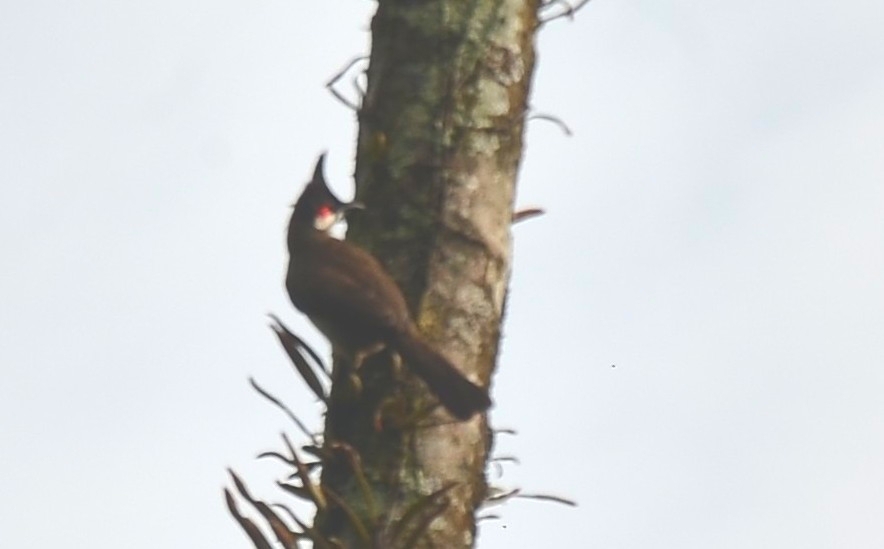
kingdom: Animalia
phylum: Chordata
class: Aves
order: Passeriformes
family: Pycnonotidae
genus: Pycnonotus
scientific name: Pycnonotus jocosus
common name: Red-whiskered bulbul
